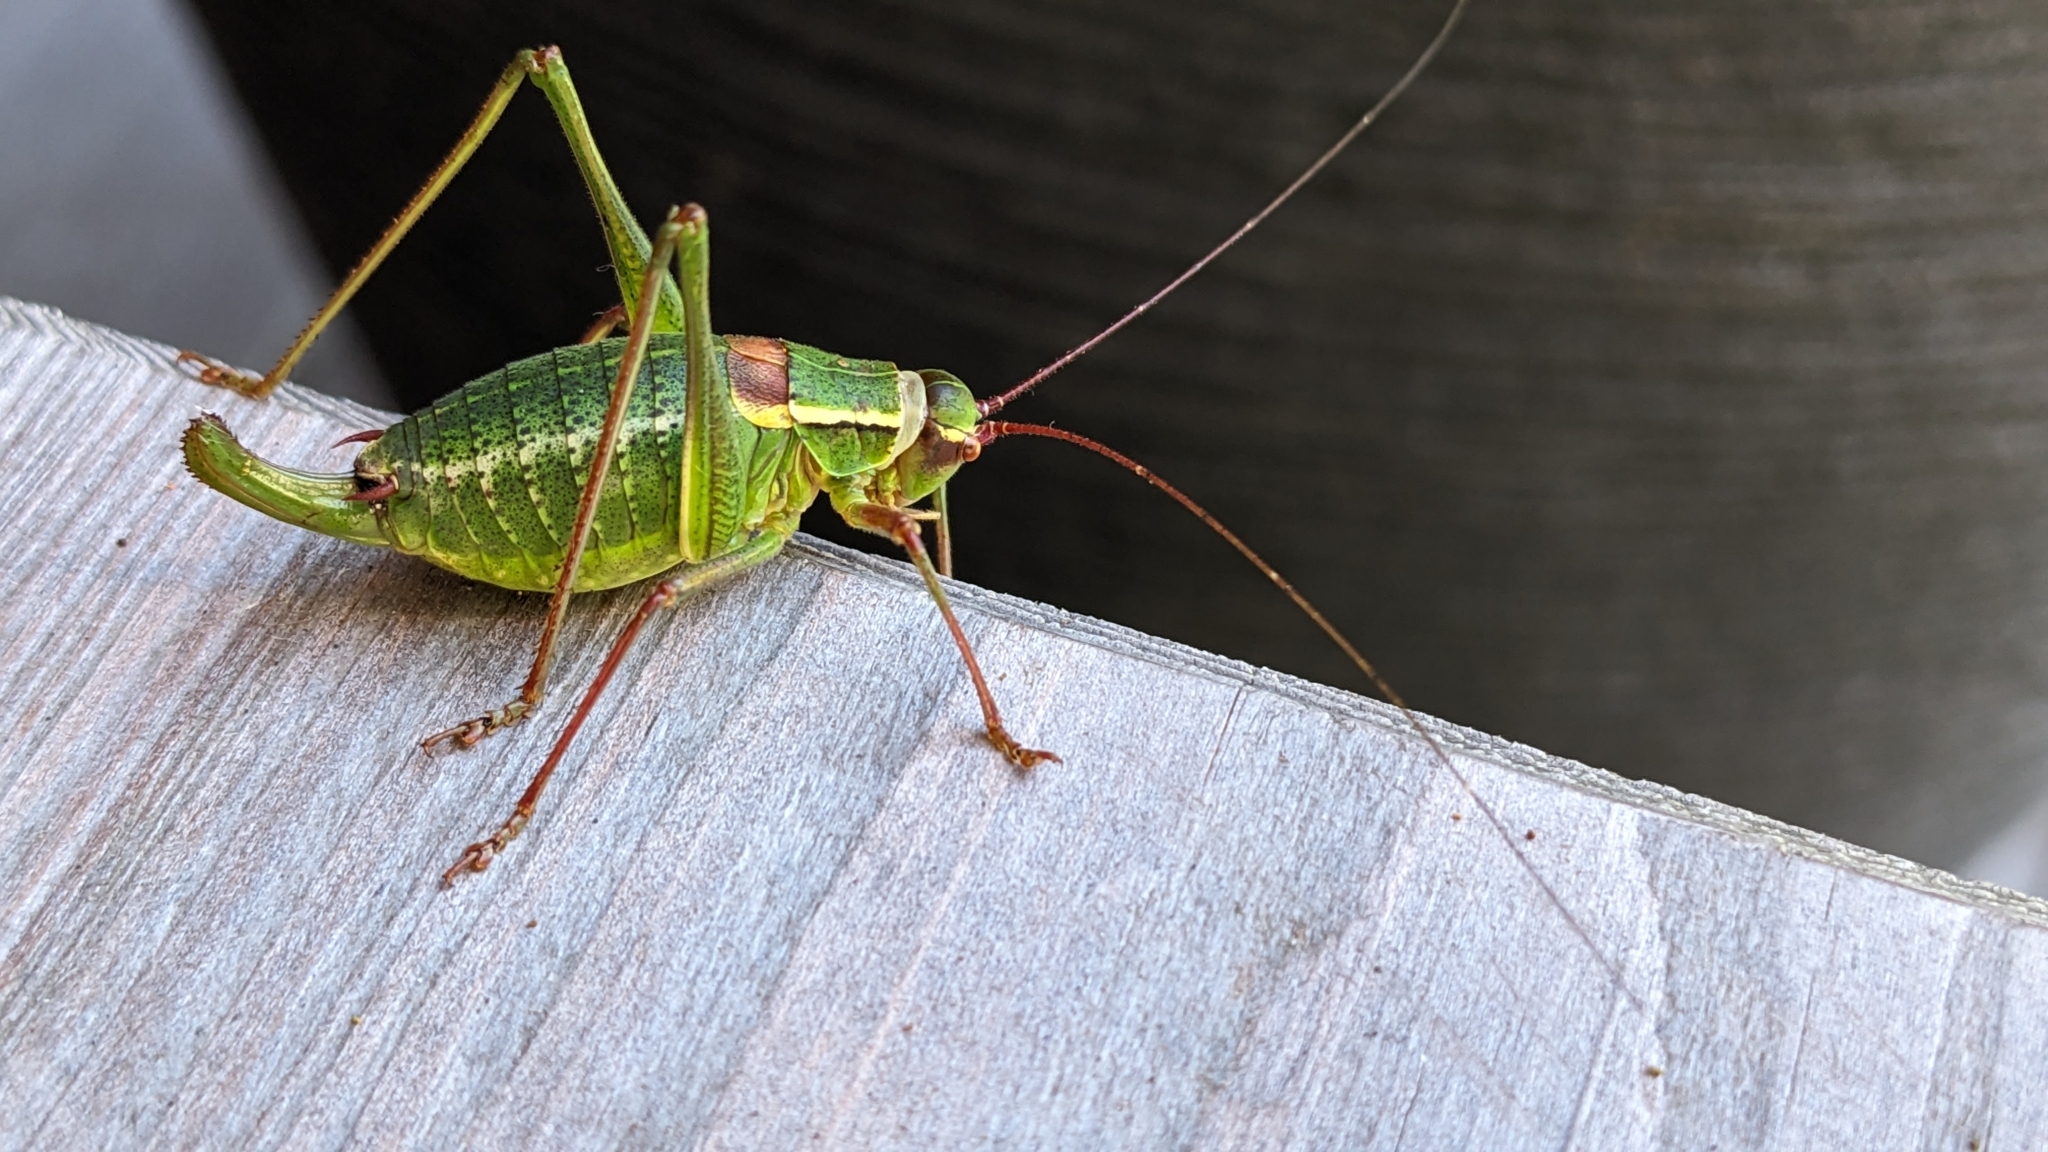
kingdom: Animalia
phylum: Arthropoda
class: Insecta
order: Orthoptera
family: Tettigoniidae
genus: Barbitistes
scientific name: Barbitistes serricauda
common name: Saw-tailed bush-cricket
